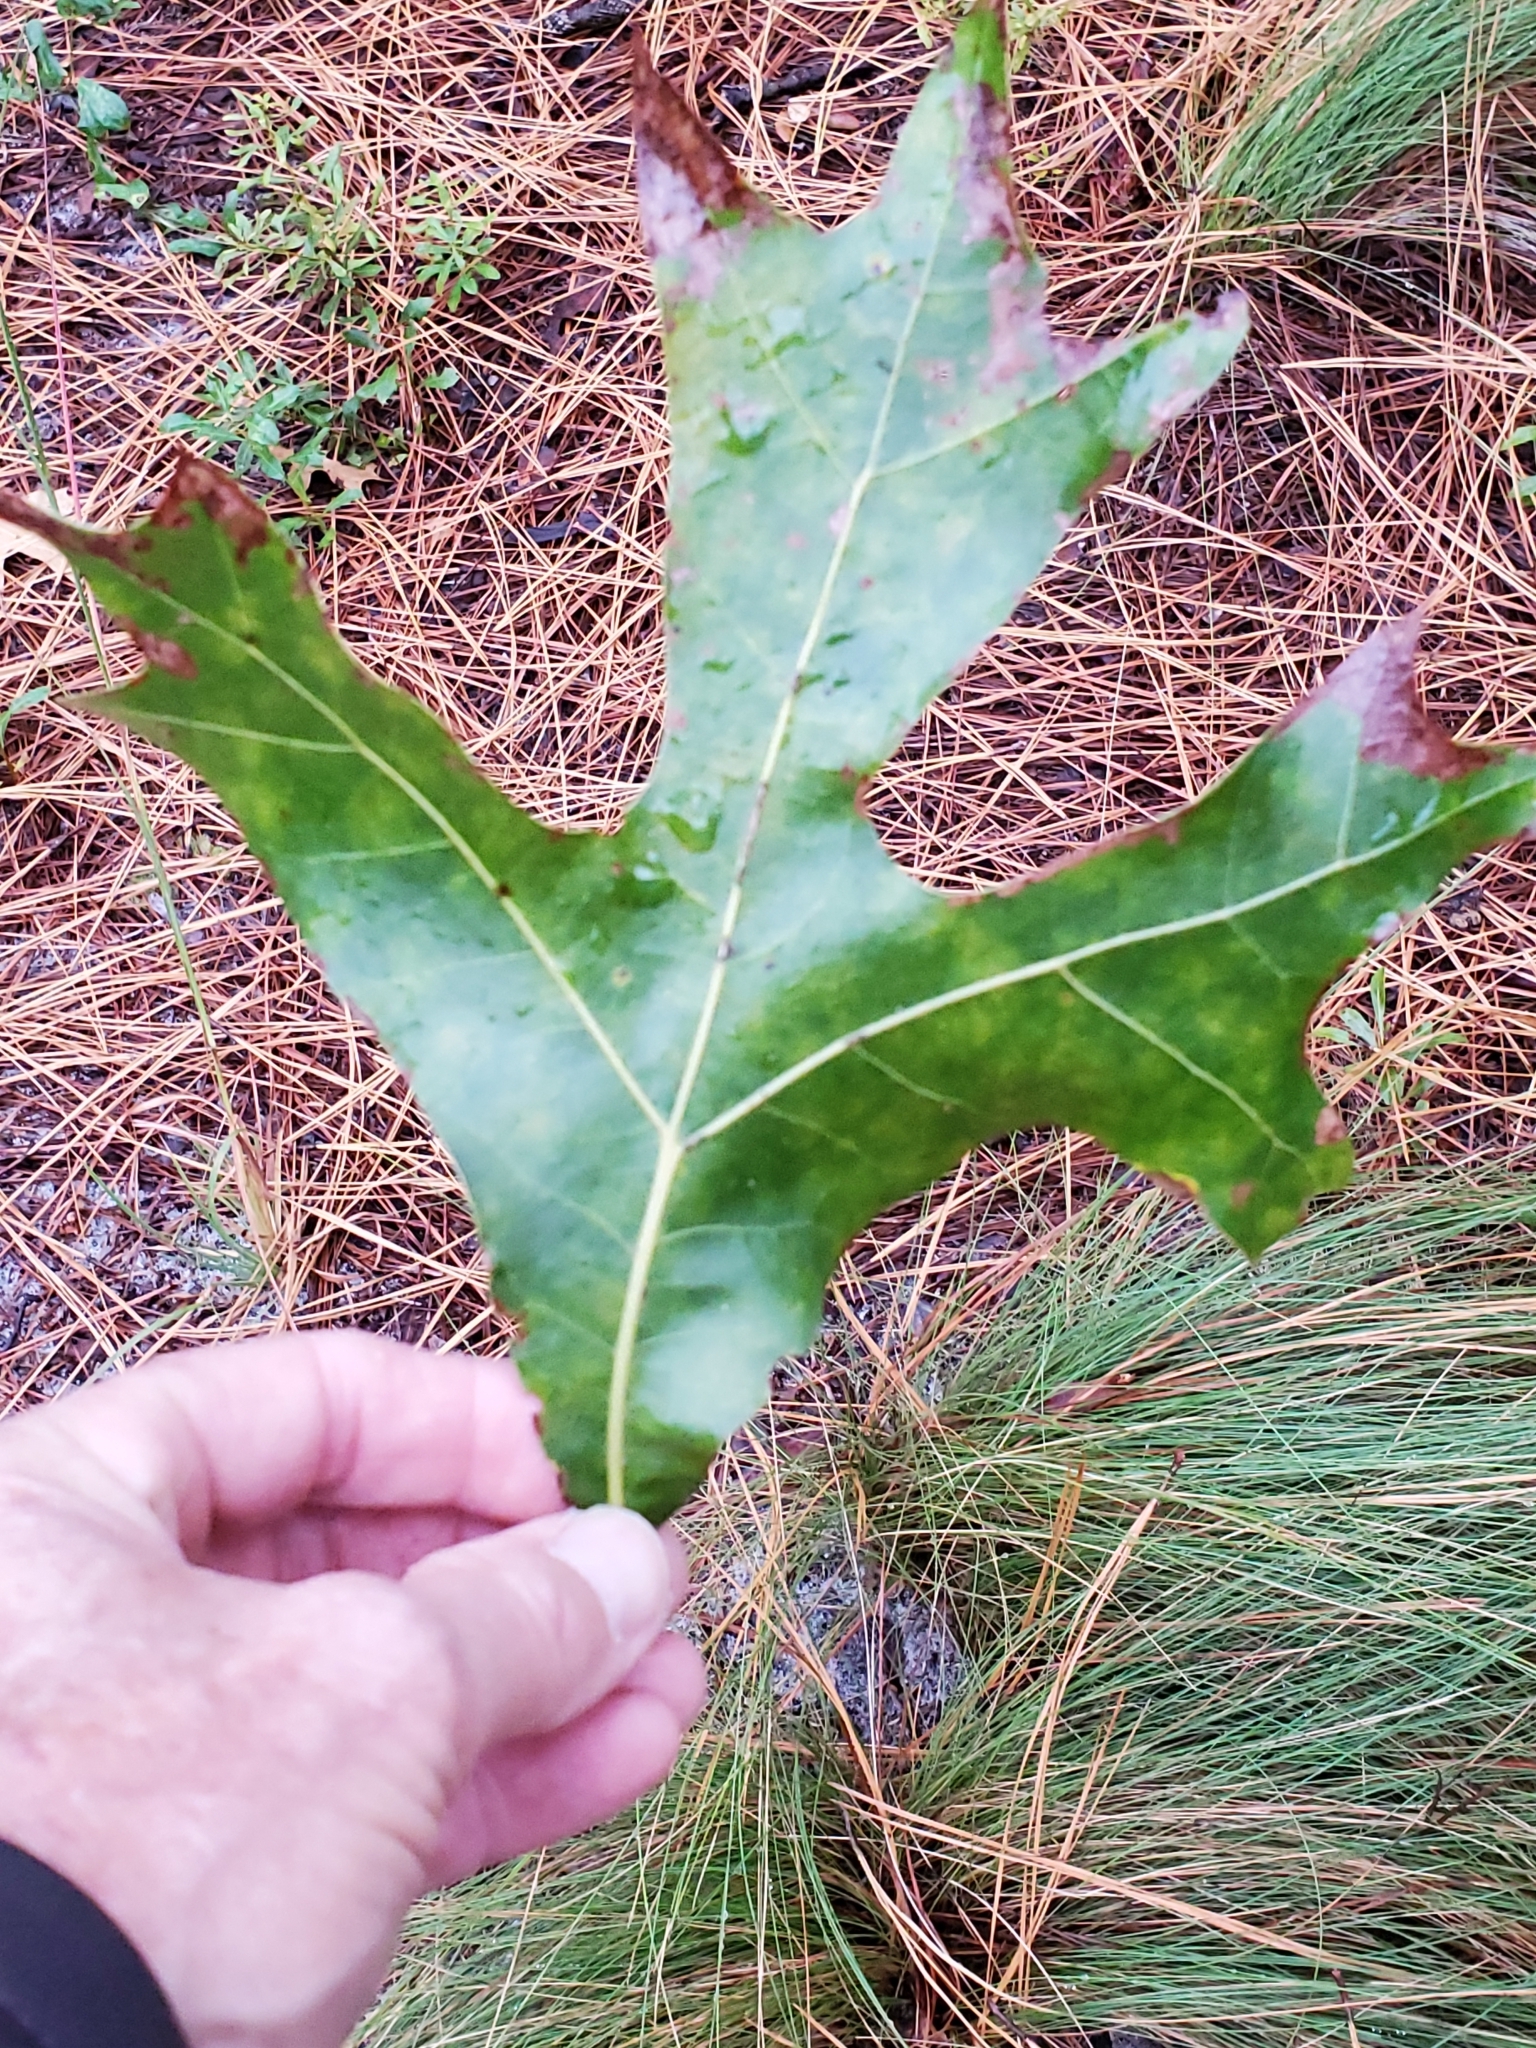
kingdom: Plantae
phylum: Tracheophyta
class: Magnoliopsida
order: Fagales
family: Fagaceae
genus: Quercus
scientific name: Quercus laevis
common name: Turkey oak
